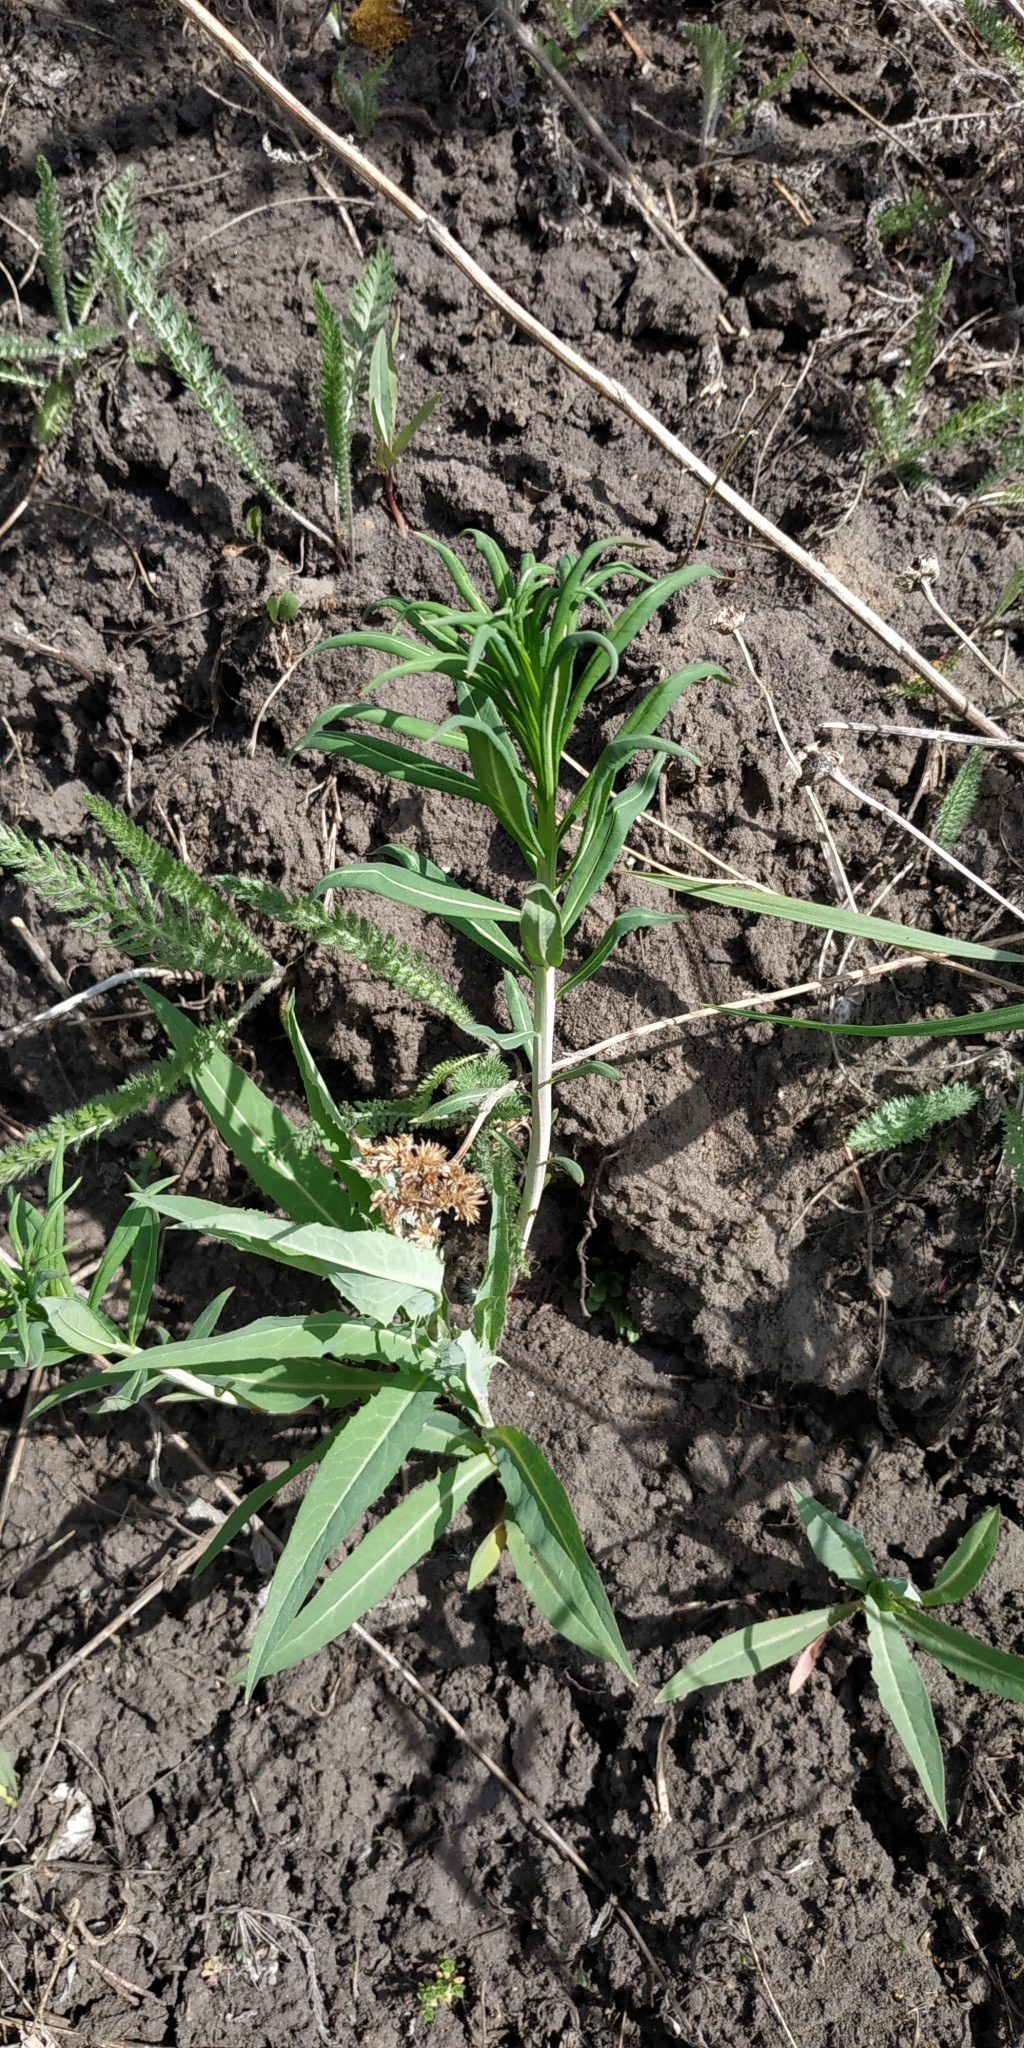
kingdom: Plantae
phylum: Tracheophyta
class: Magnoliopsida
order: Myrtales
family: Onagraceae
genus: Chamaenerion
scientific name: Chamaenerion angustifolium
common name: Fireweed
